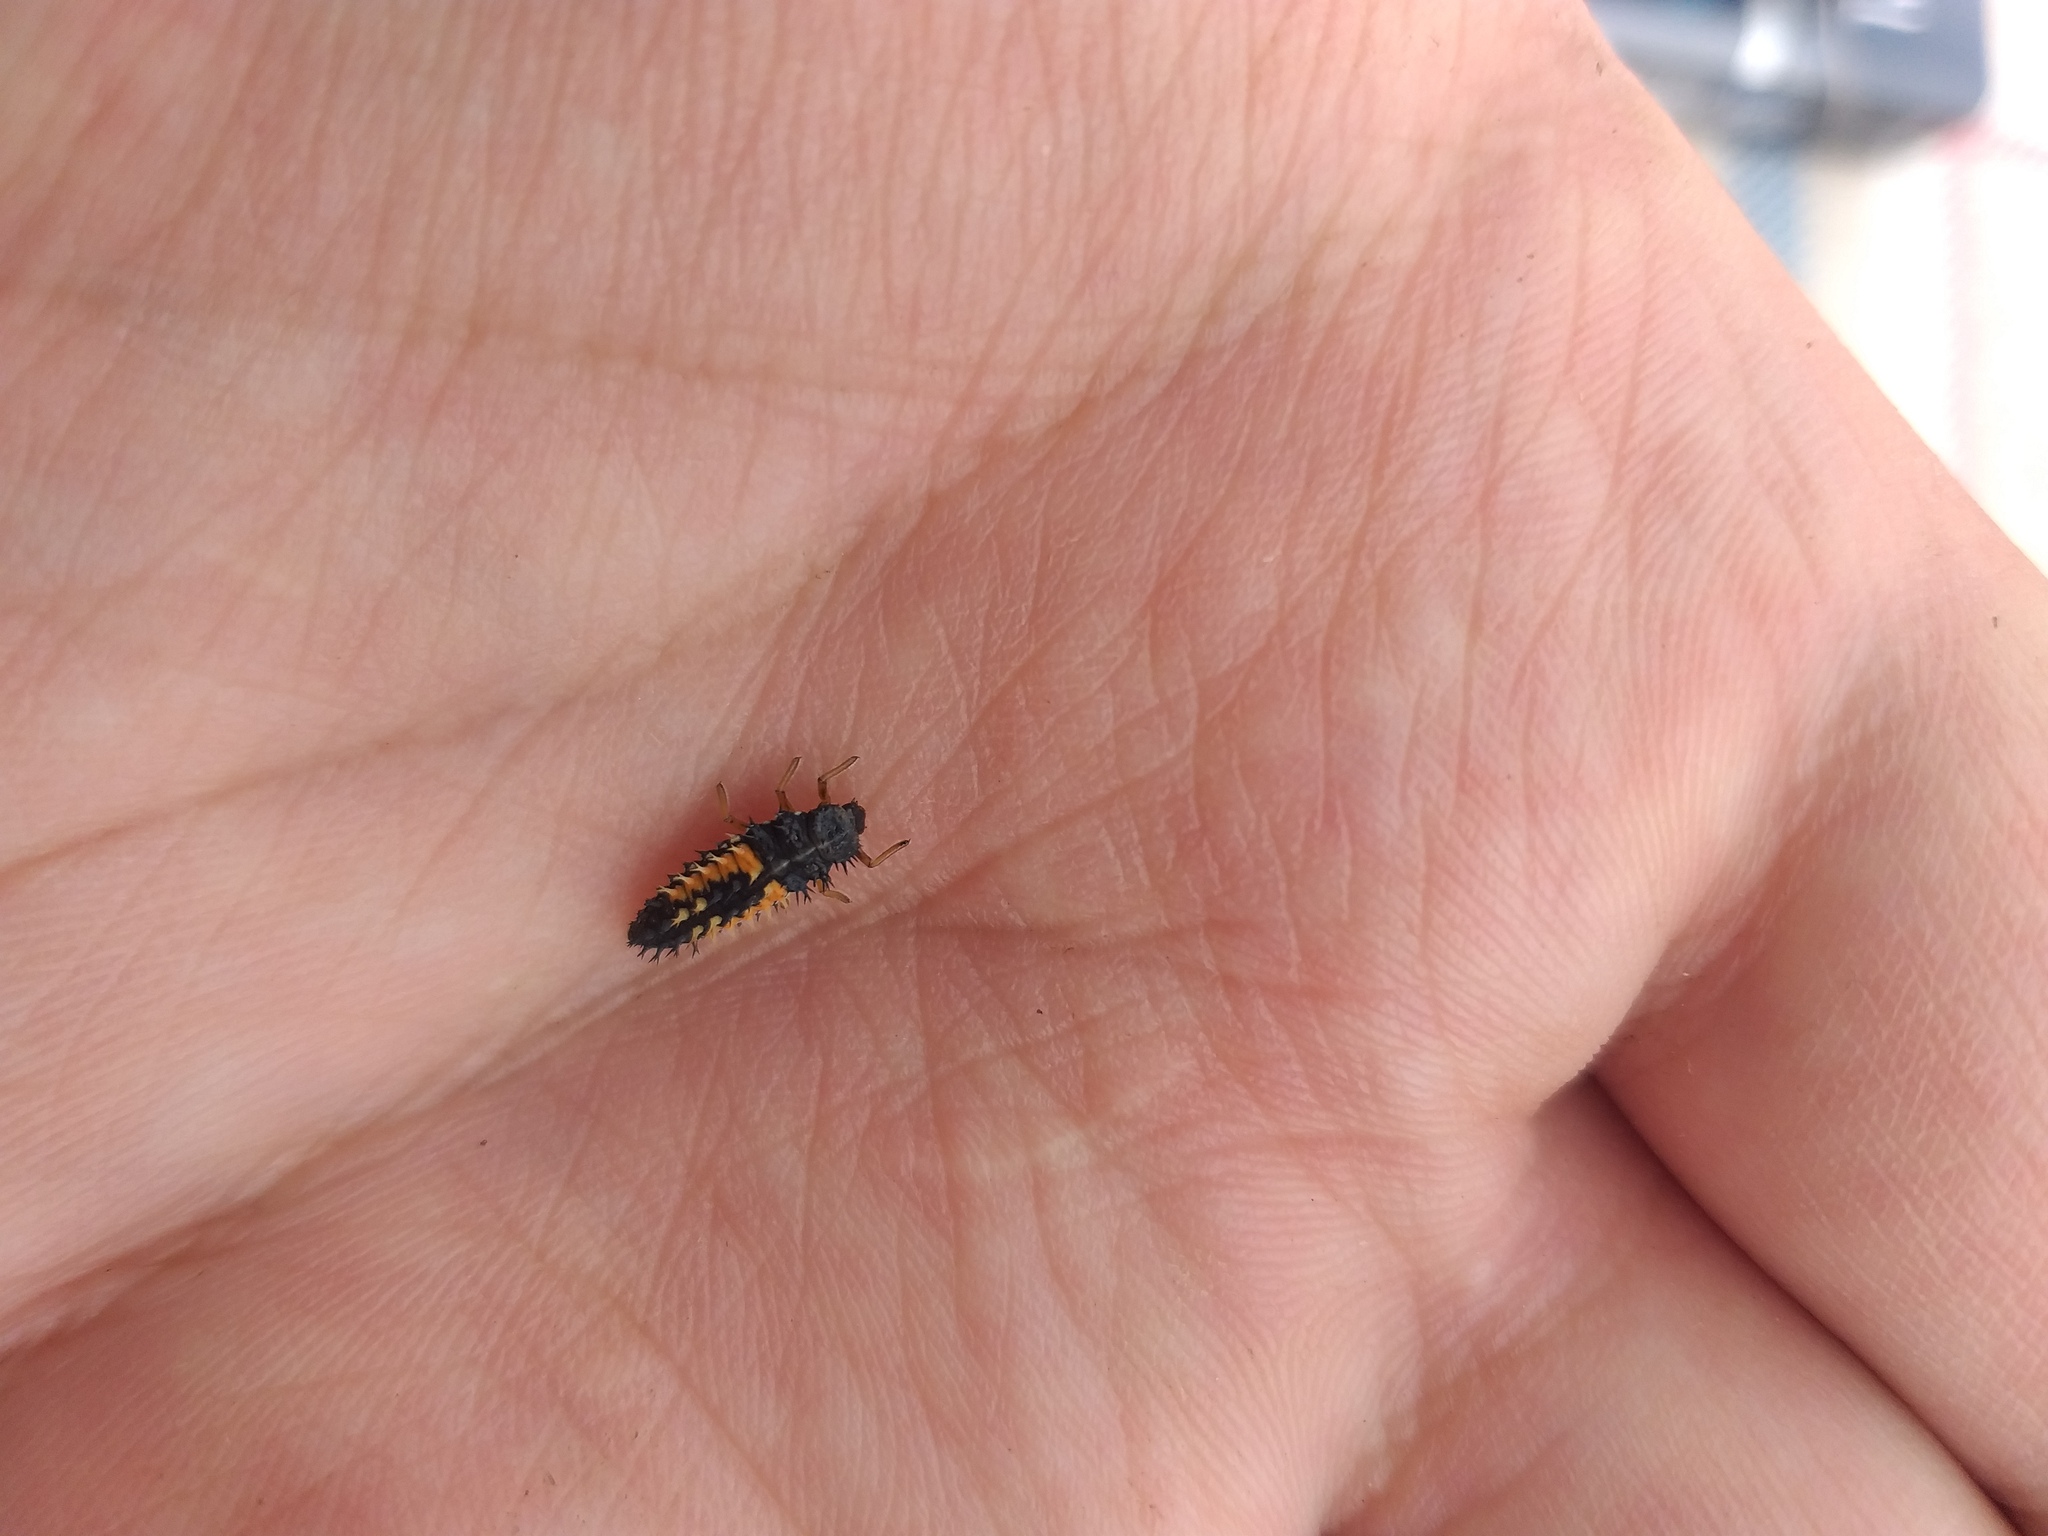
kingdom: Animalia
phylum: Arthropoda
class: Insecta
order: Coleoptera
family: Coccinellidae
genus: Harmonia
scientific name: Harmonia axyridis
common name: Harlequin ladybird
